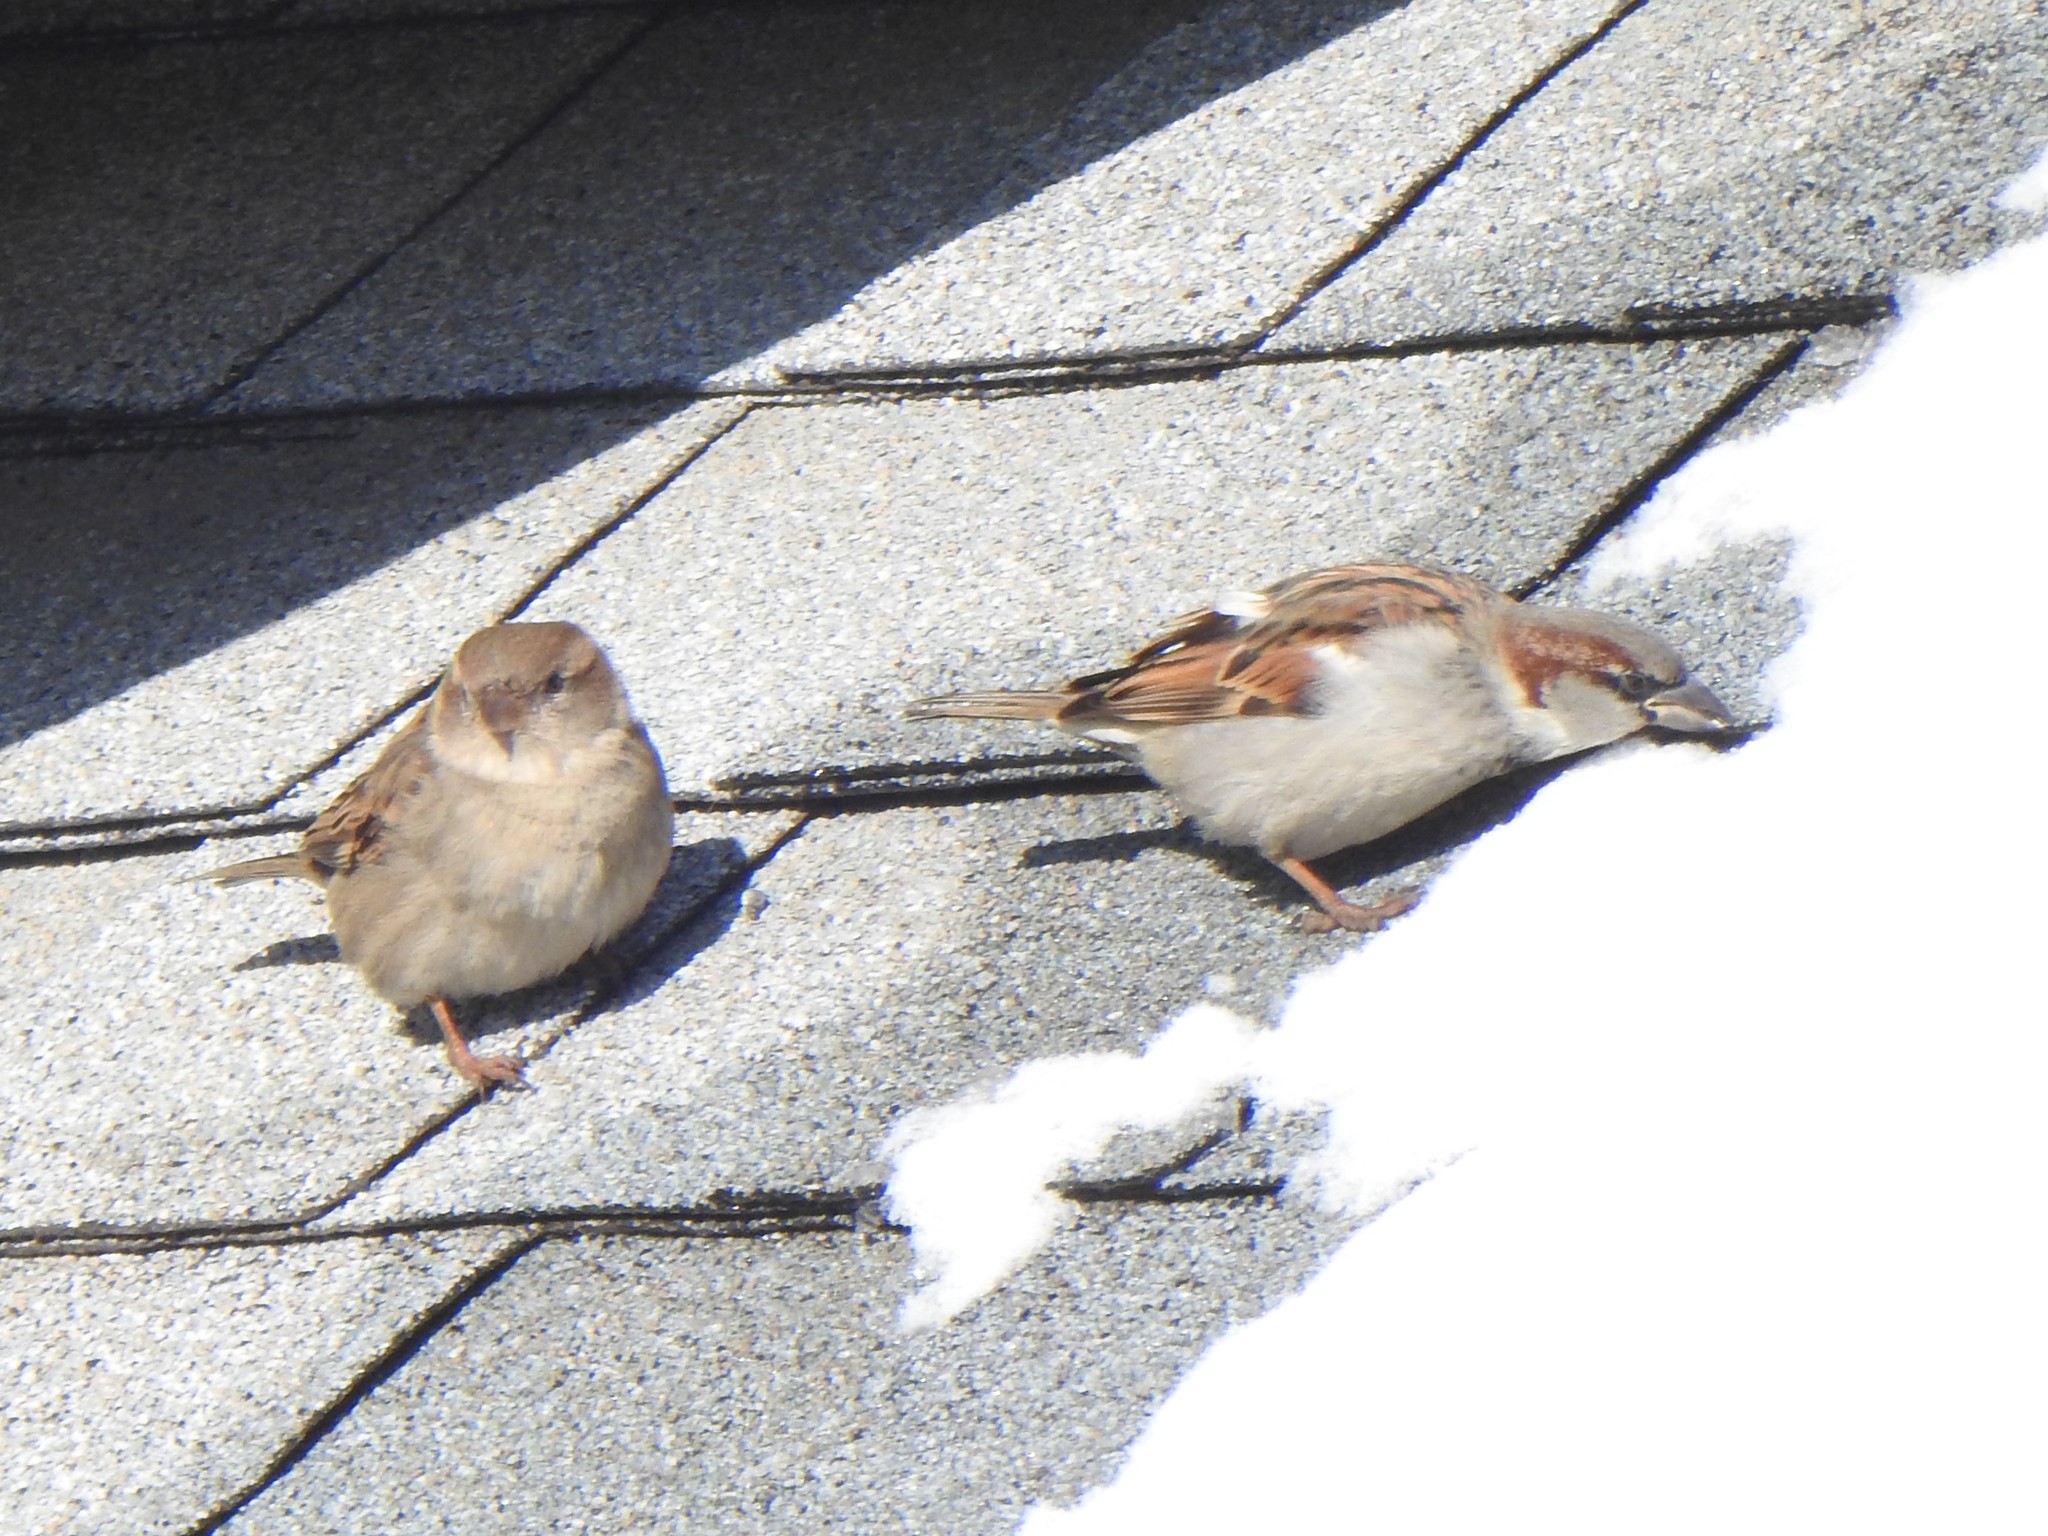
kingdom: Animalia
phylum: Chordata
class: Aves
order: Passeriformes
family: Passeridae
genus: Passer
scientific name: Passer domesticus
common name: House sparrow
